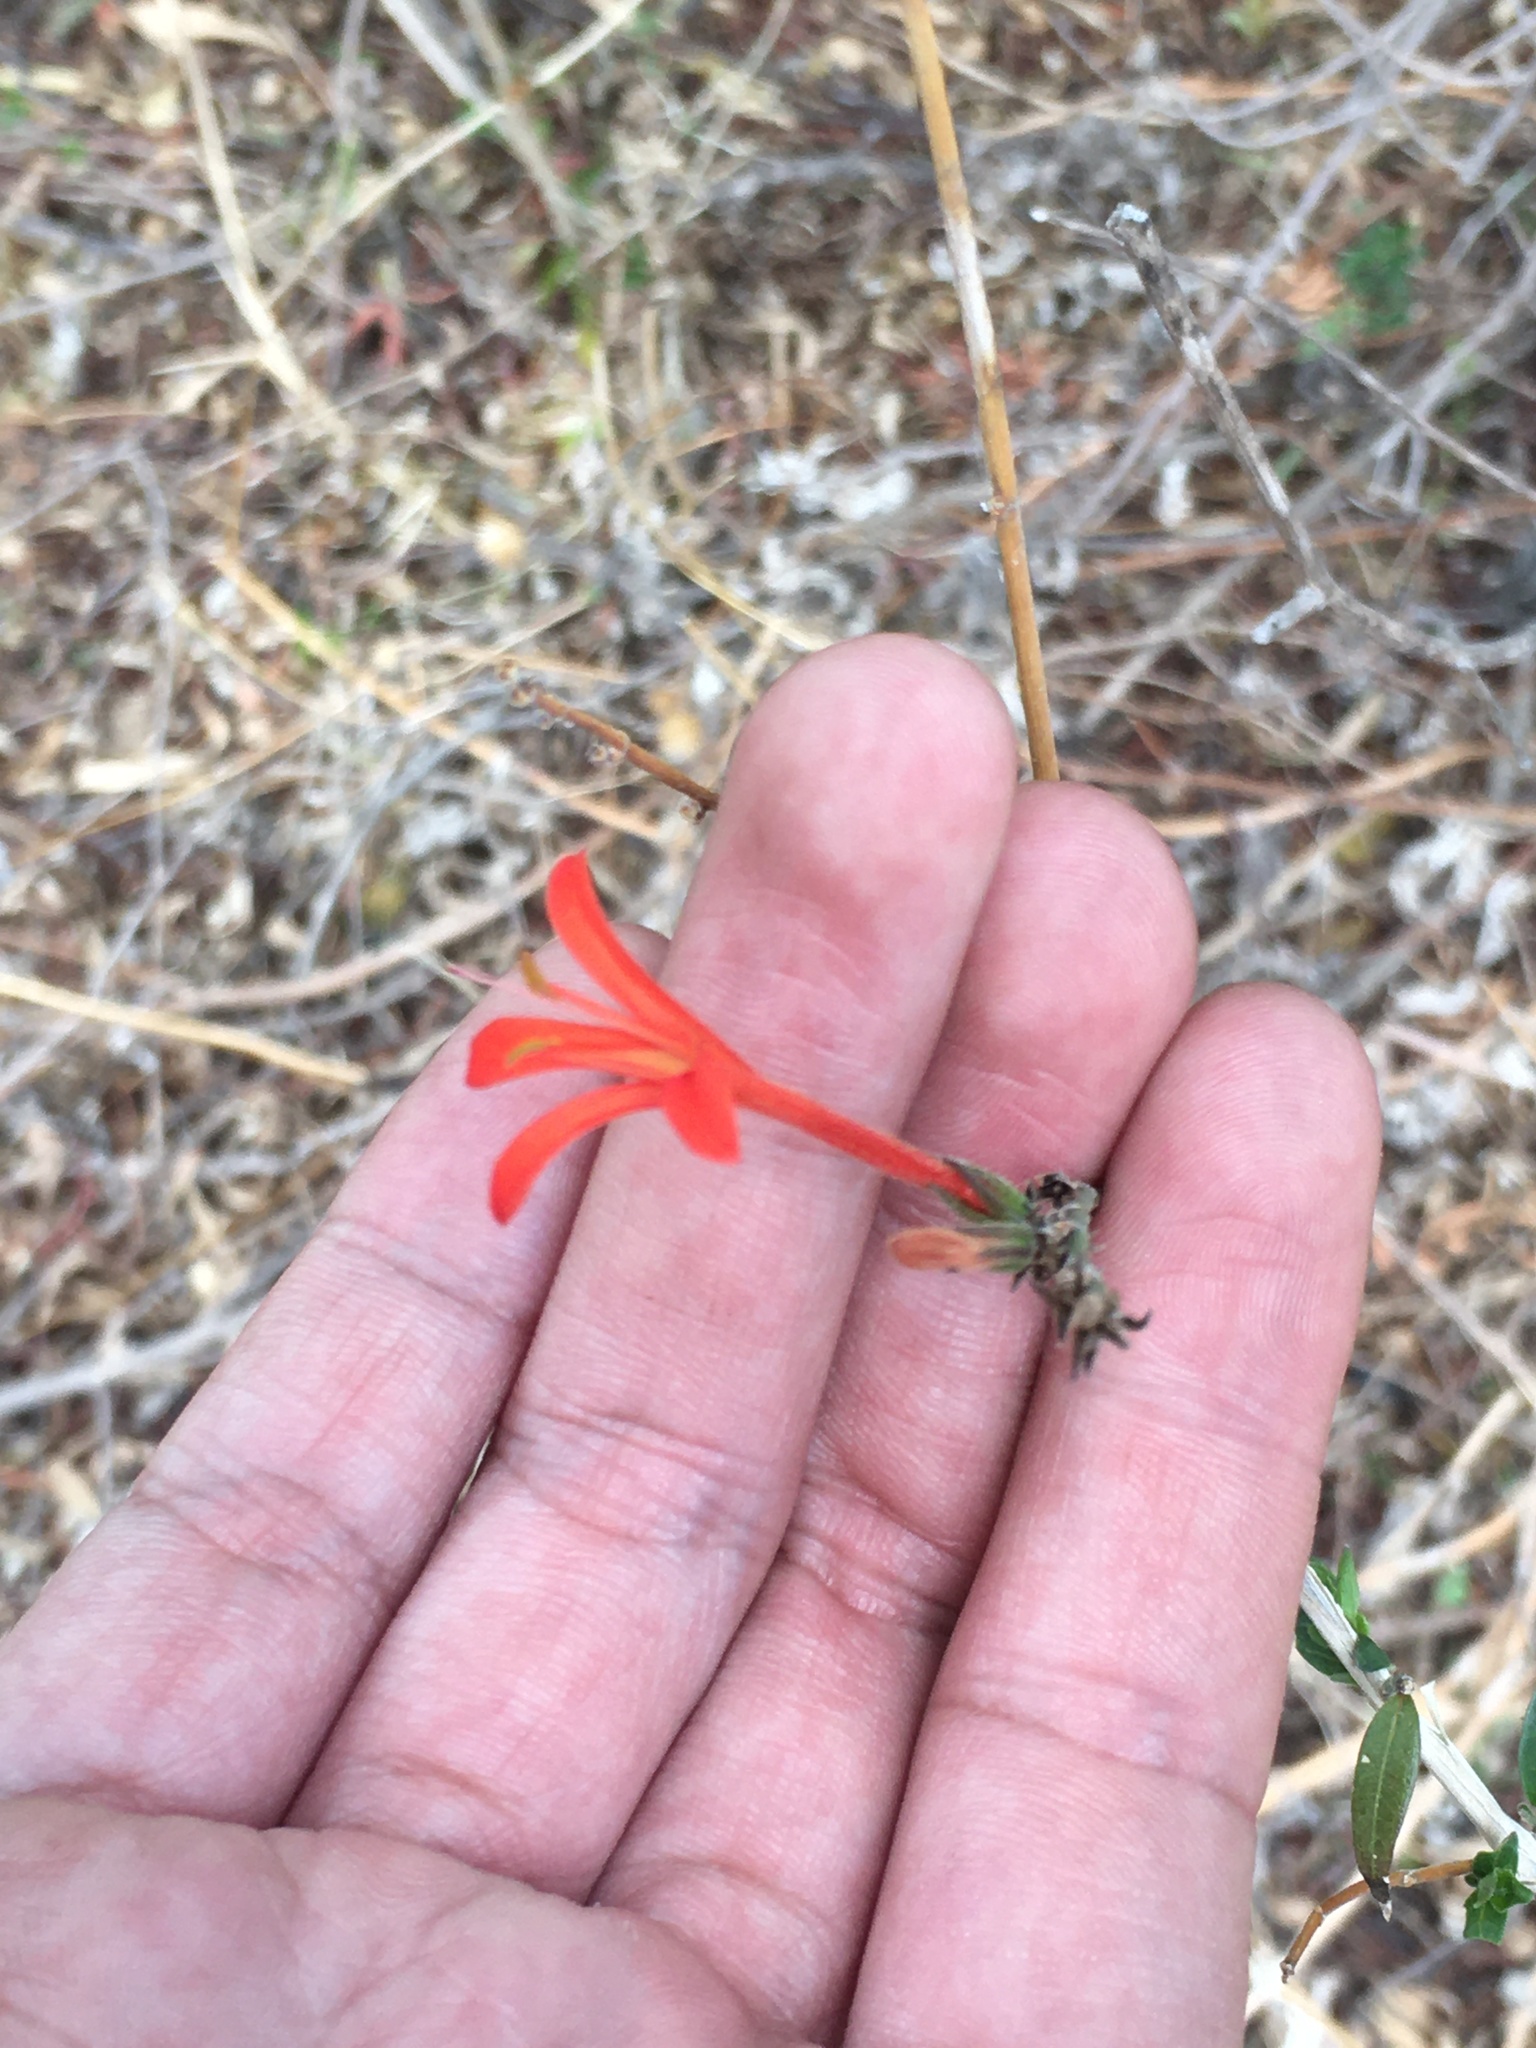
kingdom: Plantae
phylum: Tracheophyta
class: Magnoliopsida
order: Lamiales
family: Acanthaceae
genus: Anisacanthus
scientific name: Anisacanthus quadrifidus
